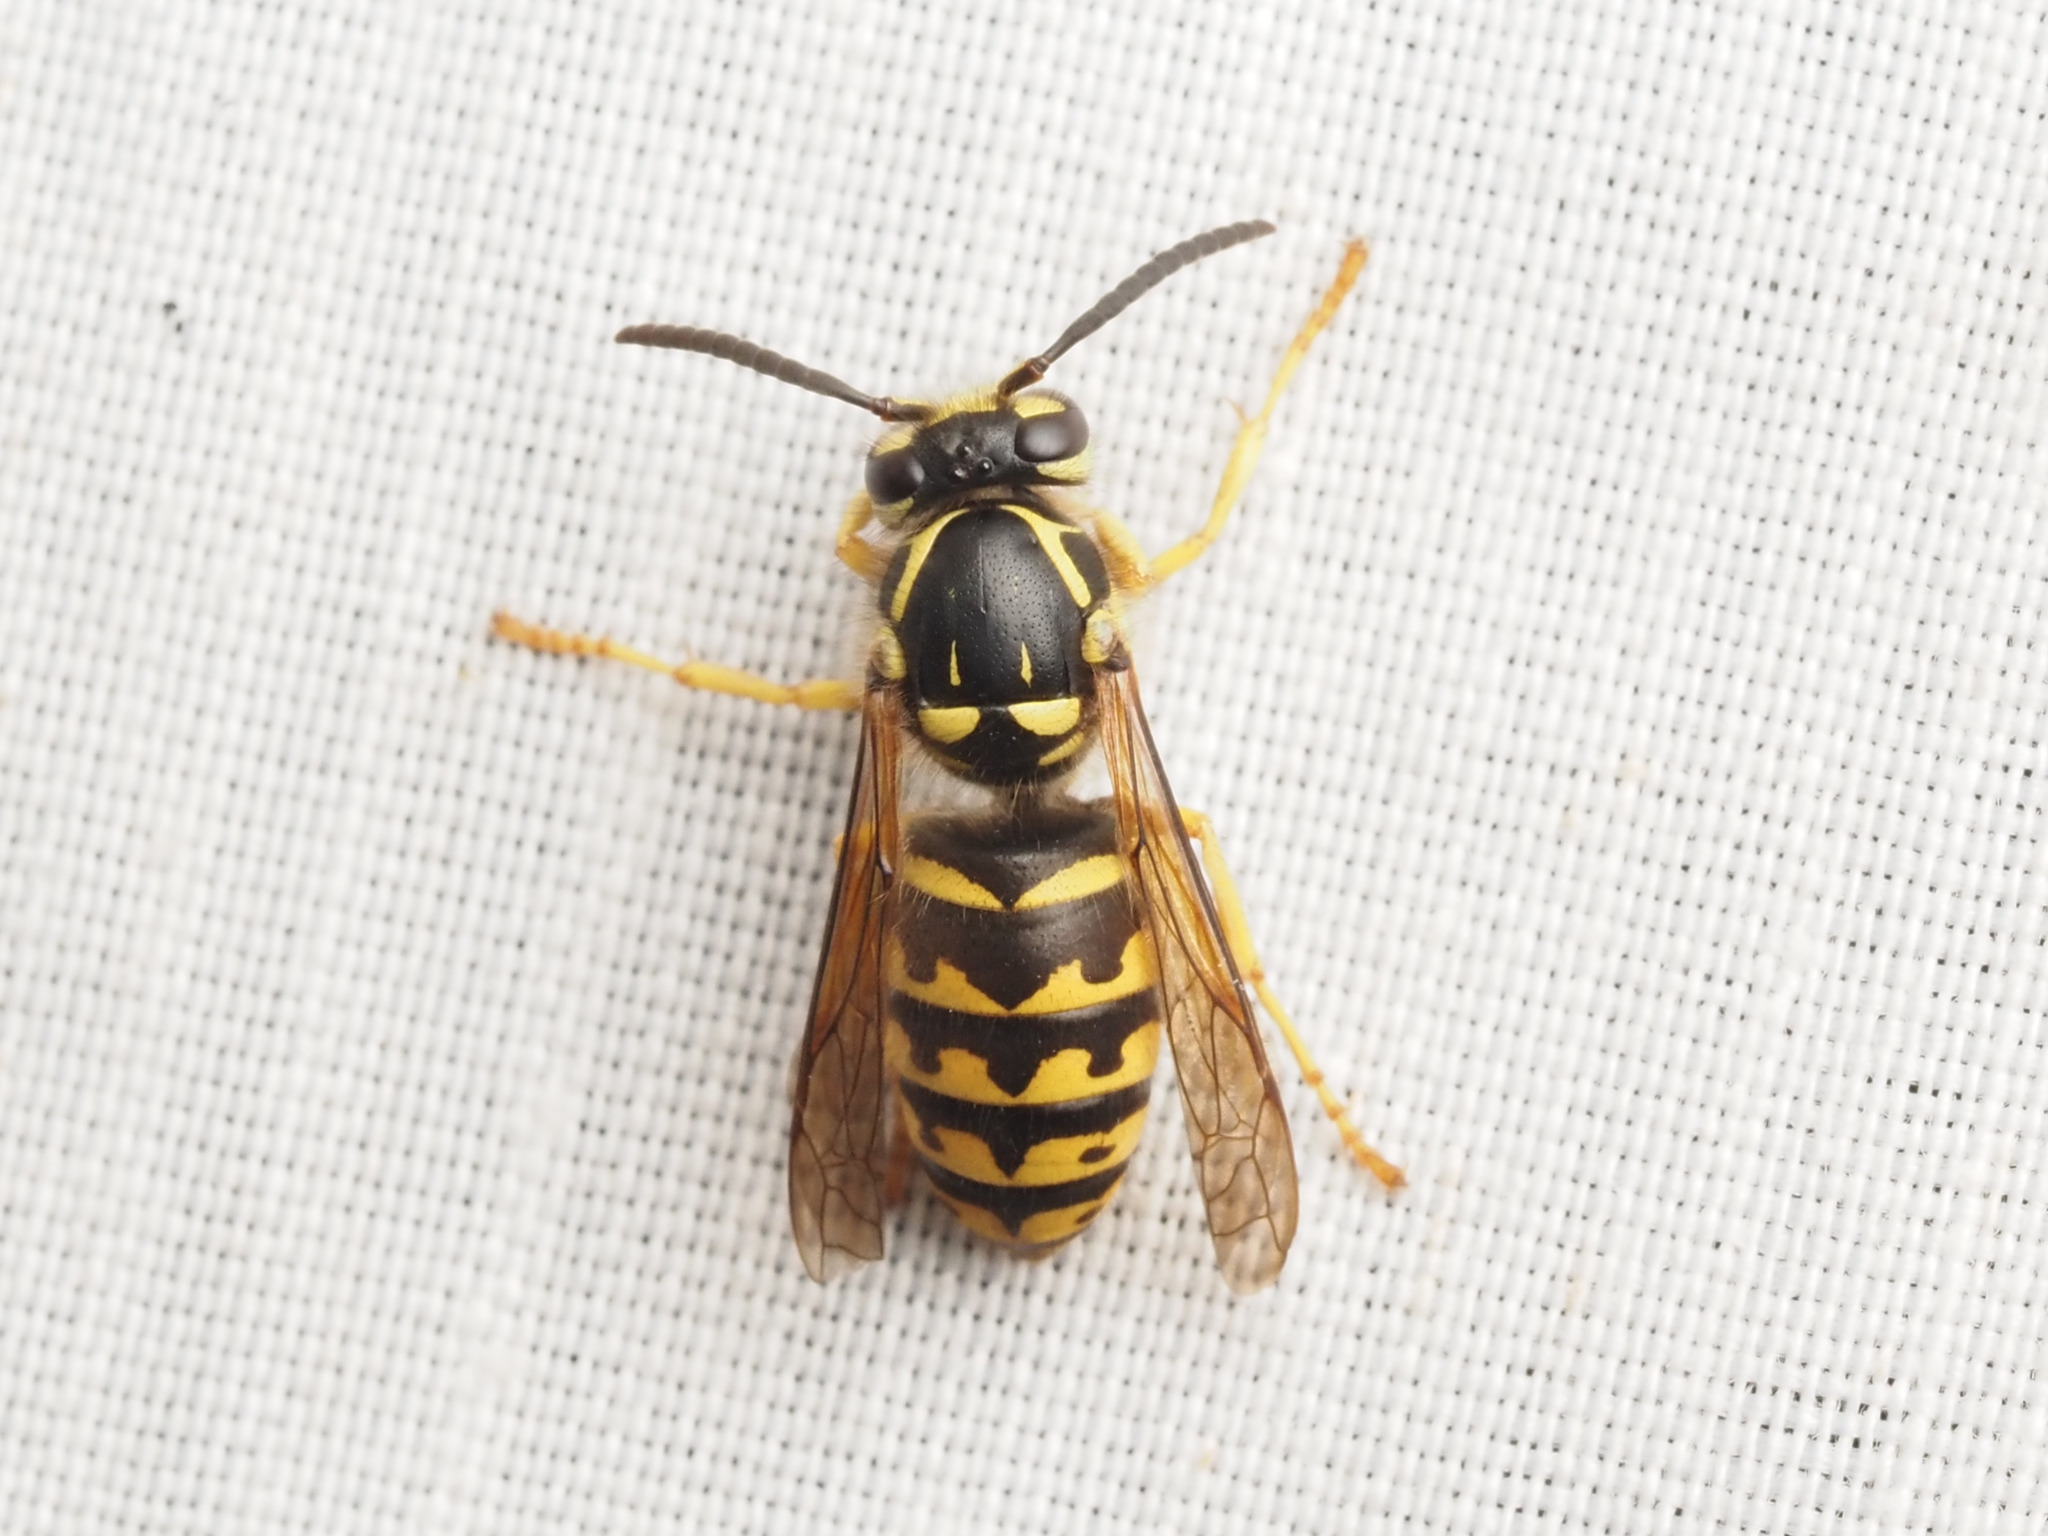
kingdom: Animalia
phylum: Arthropoda
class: Insecta
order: Hymenoptera
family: Vespidae
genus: Dolichovespula
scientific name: Dolichovespula arenaria
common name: Aerial yellowjacket
